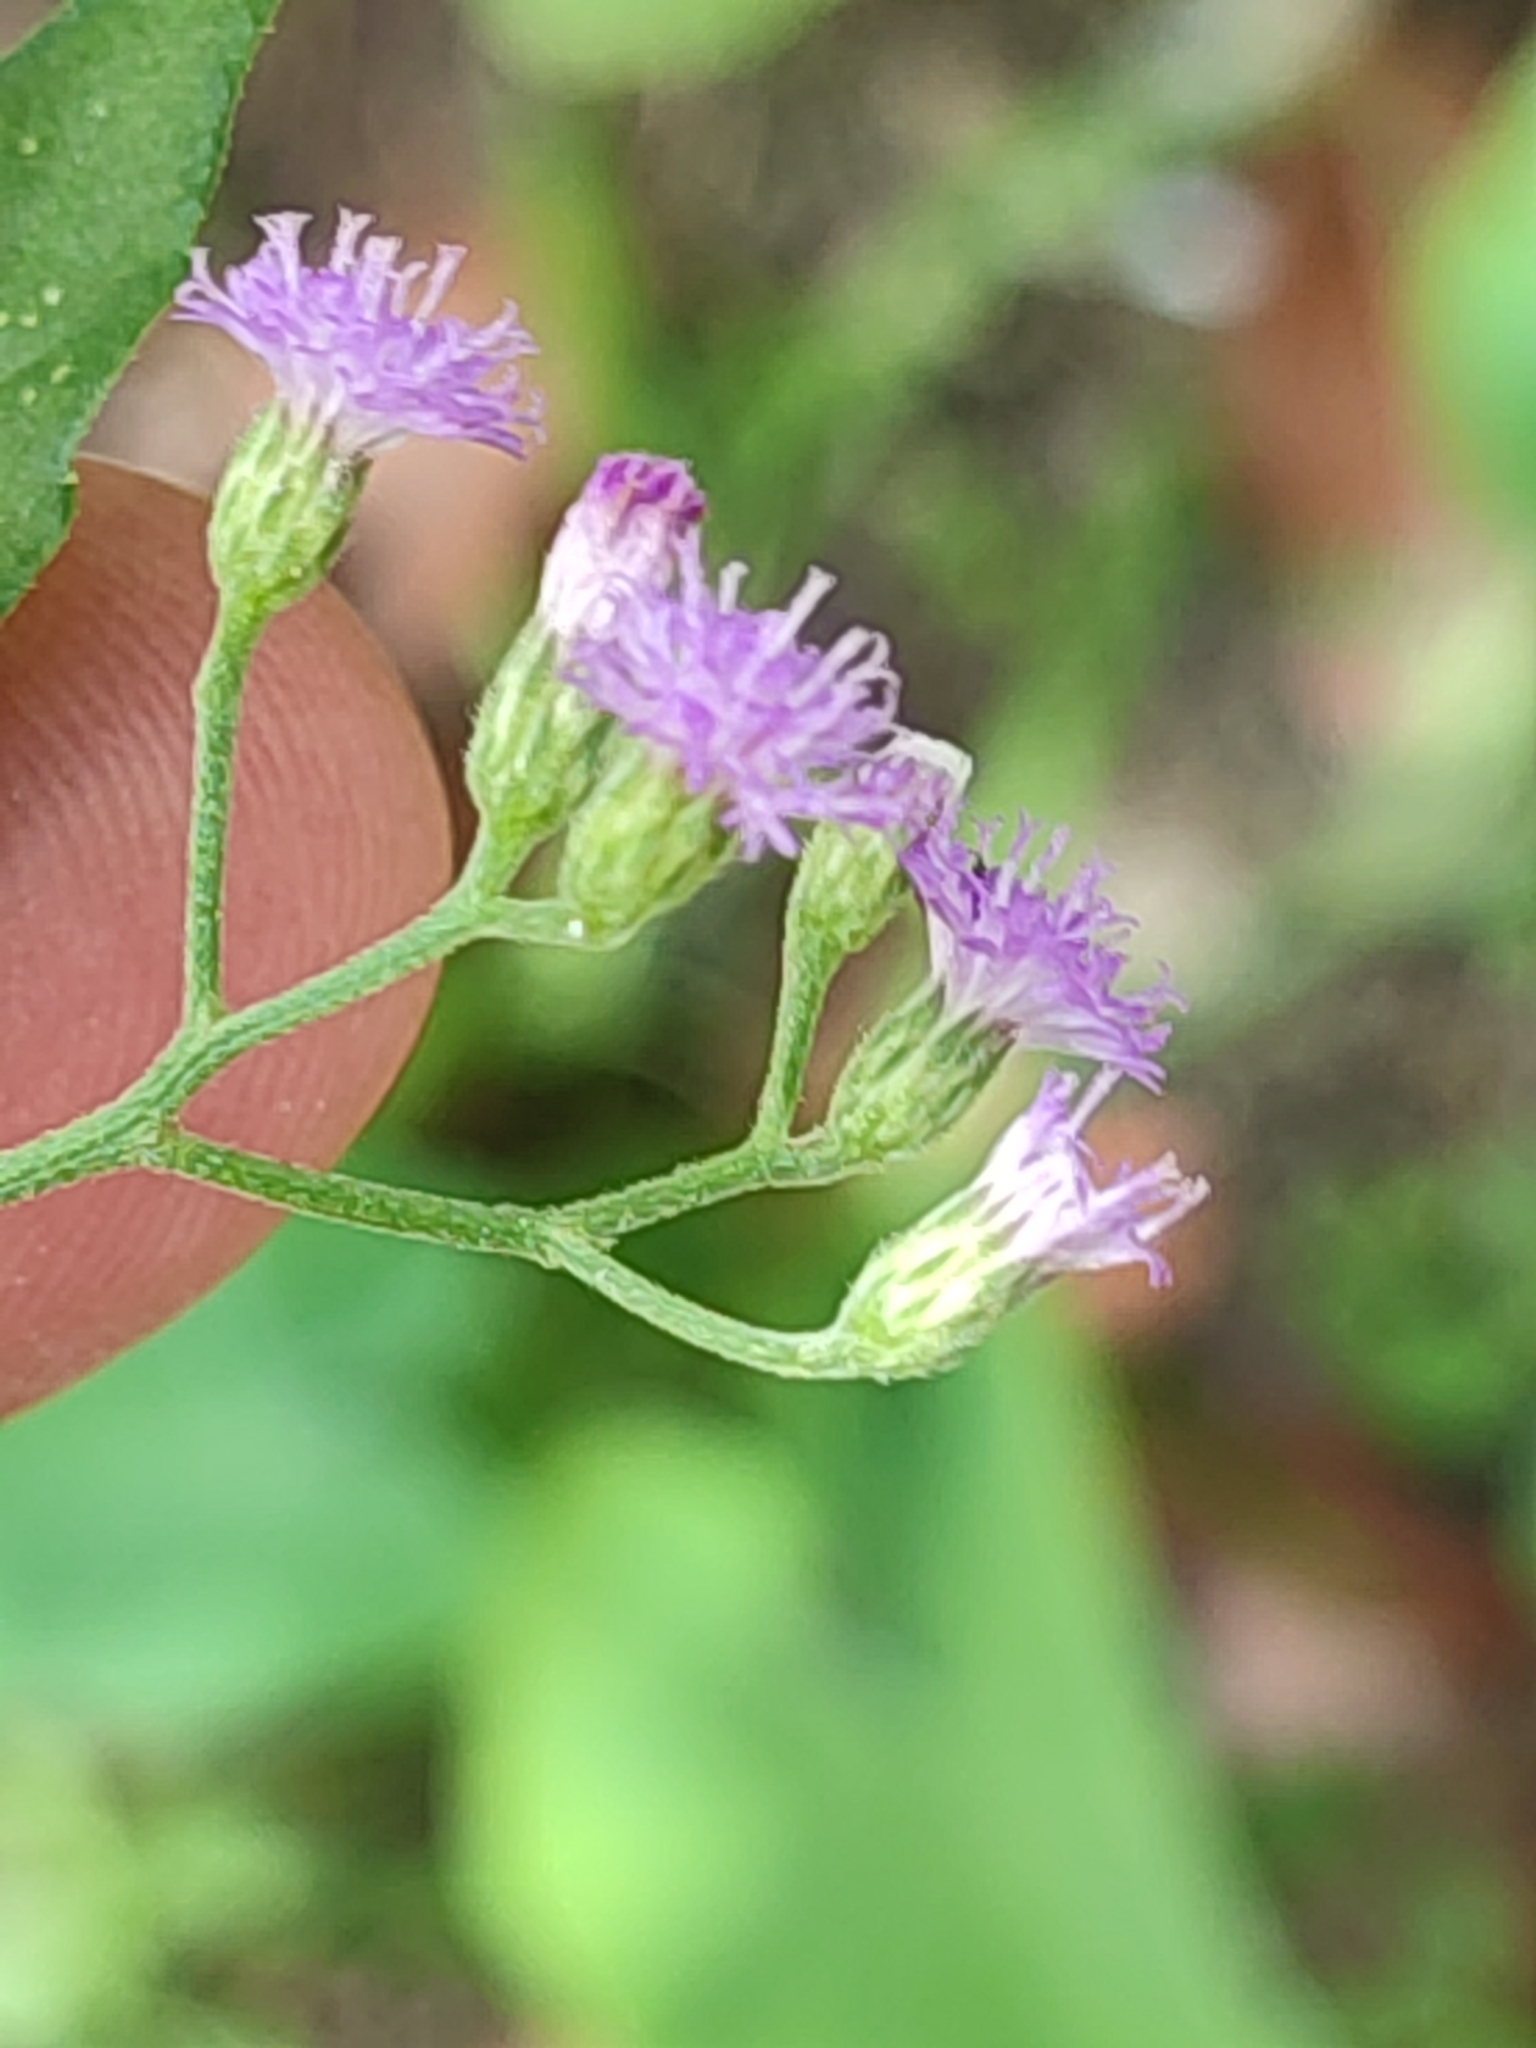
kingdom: Plantae
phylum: Tracheophyta
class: Magnoliopsida
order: Asterales
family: Asteraceae
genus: Cyanthillium
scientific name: Cyanthillium cinereum
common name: Little ironweed
